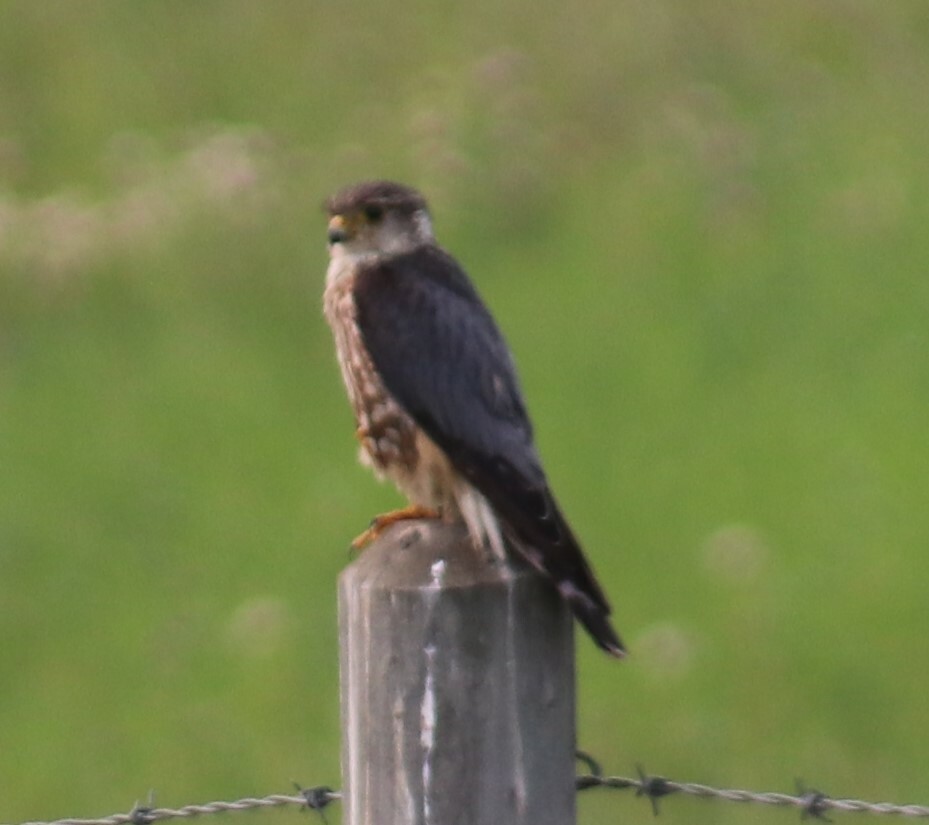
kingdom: Animalia
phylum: Chordata
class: Aves
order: Falconiformes
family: Falconidae
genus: Falco
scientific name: Falco columbarius
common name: Merlin
